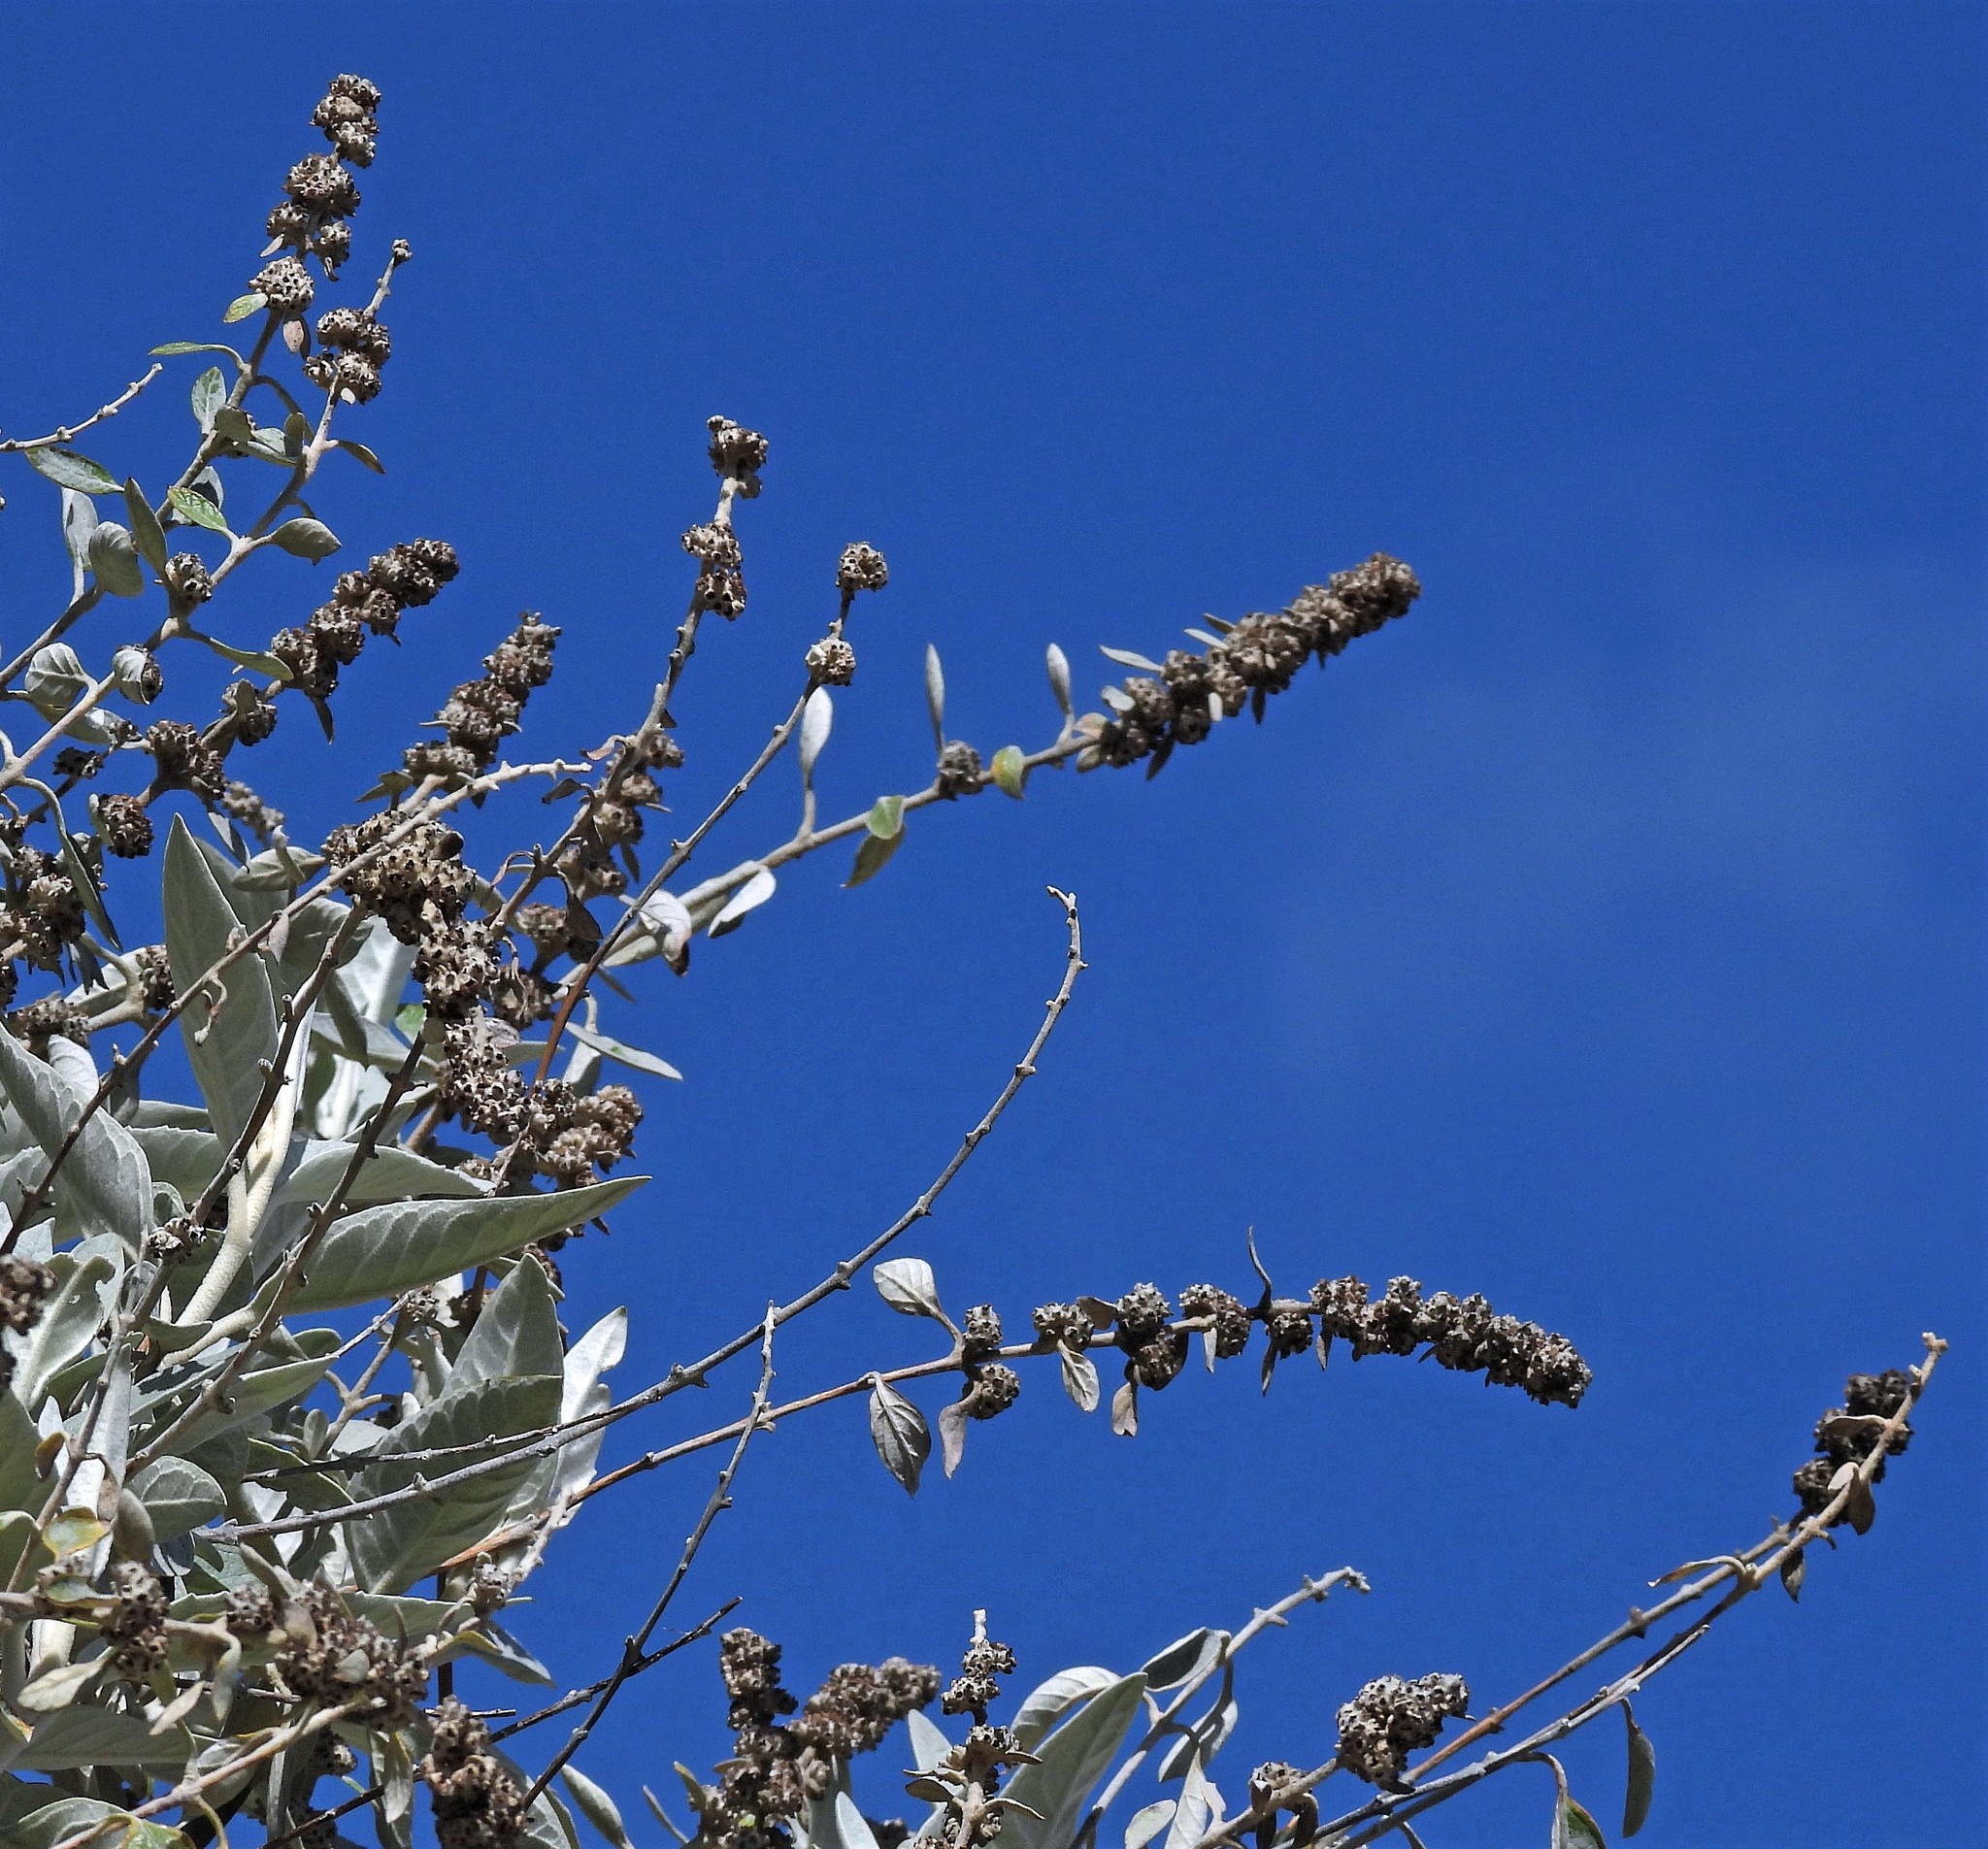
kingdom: Plantae
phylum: Tracheophyta
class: Magnoliopsida
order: Lamiales
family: Scrophulariaceae
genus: Buddleja
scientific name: Buddleja tucumanensis
